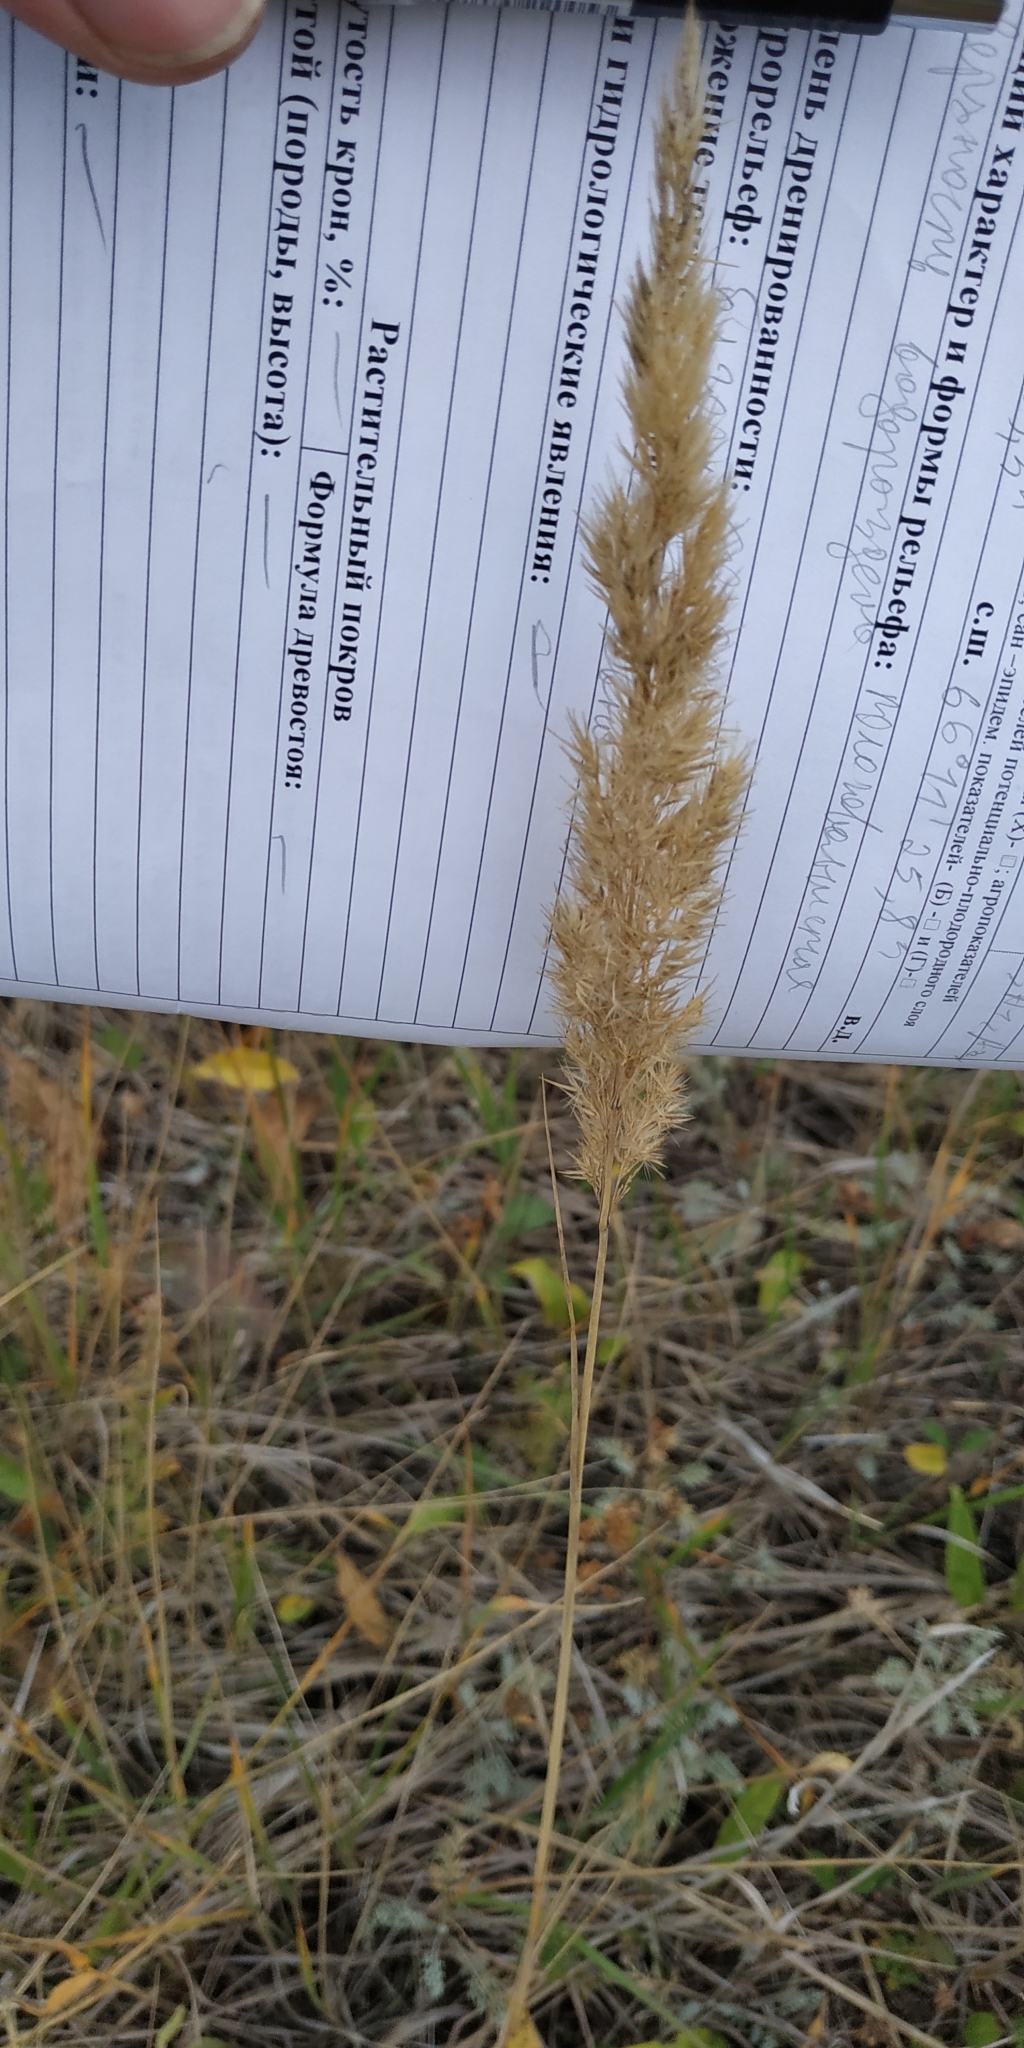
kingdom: Plantae
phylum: Tracheophyta
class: Liliopsida
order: Poales
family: Poaceae
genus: Calamagrostis
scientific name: Calamagrostis epigejos
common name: Wood small-reed
